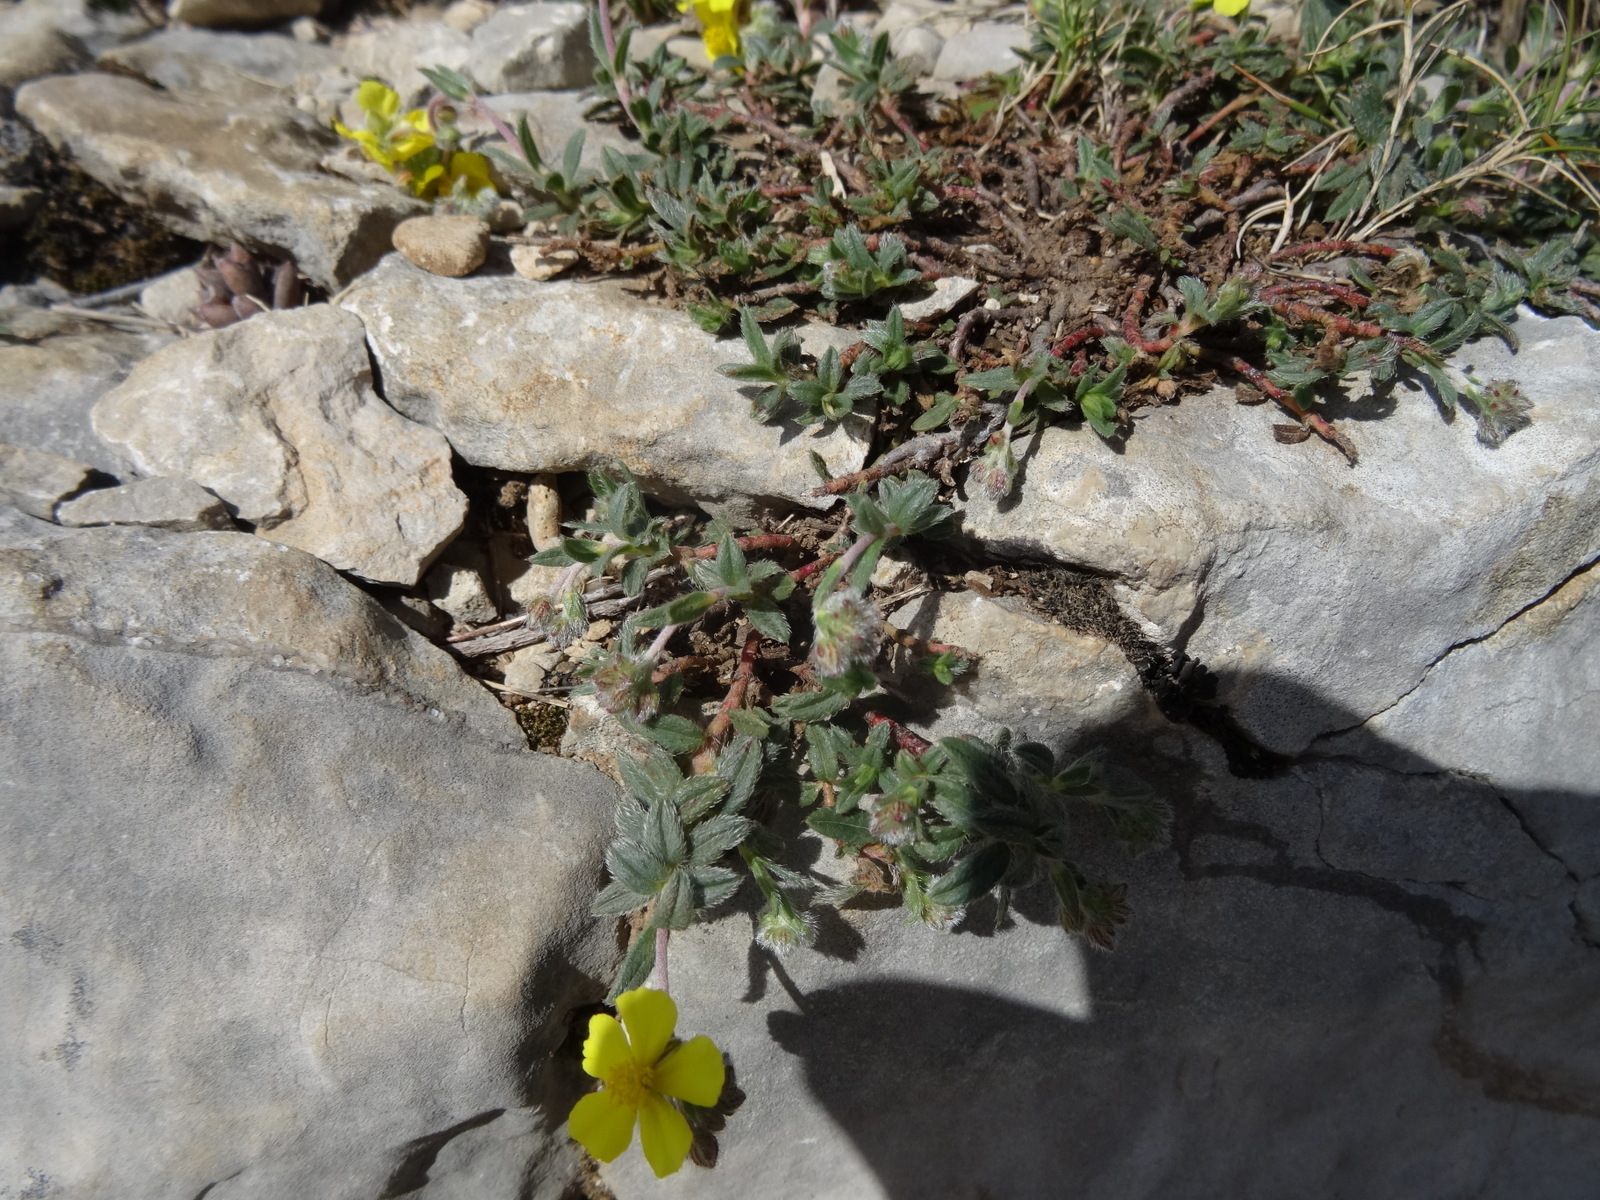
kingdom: Plantae
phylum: Tracheophyta
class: Magnoliopsida
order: Malvales
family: Cistaceae
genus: Helianthemum
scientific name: Helianthemum nummularium
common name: Common rock-rose
